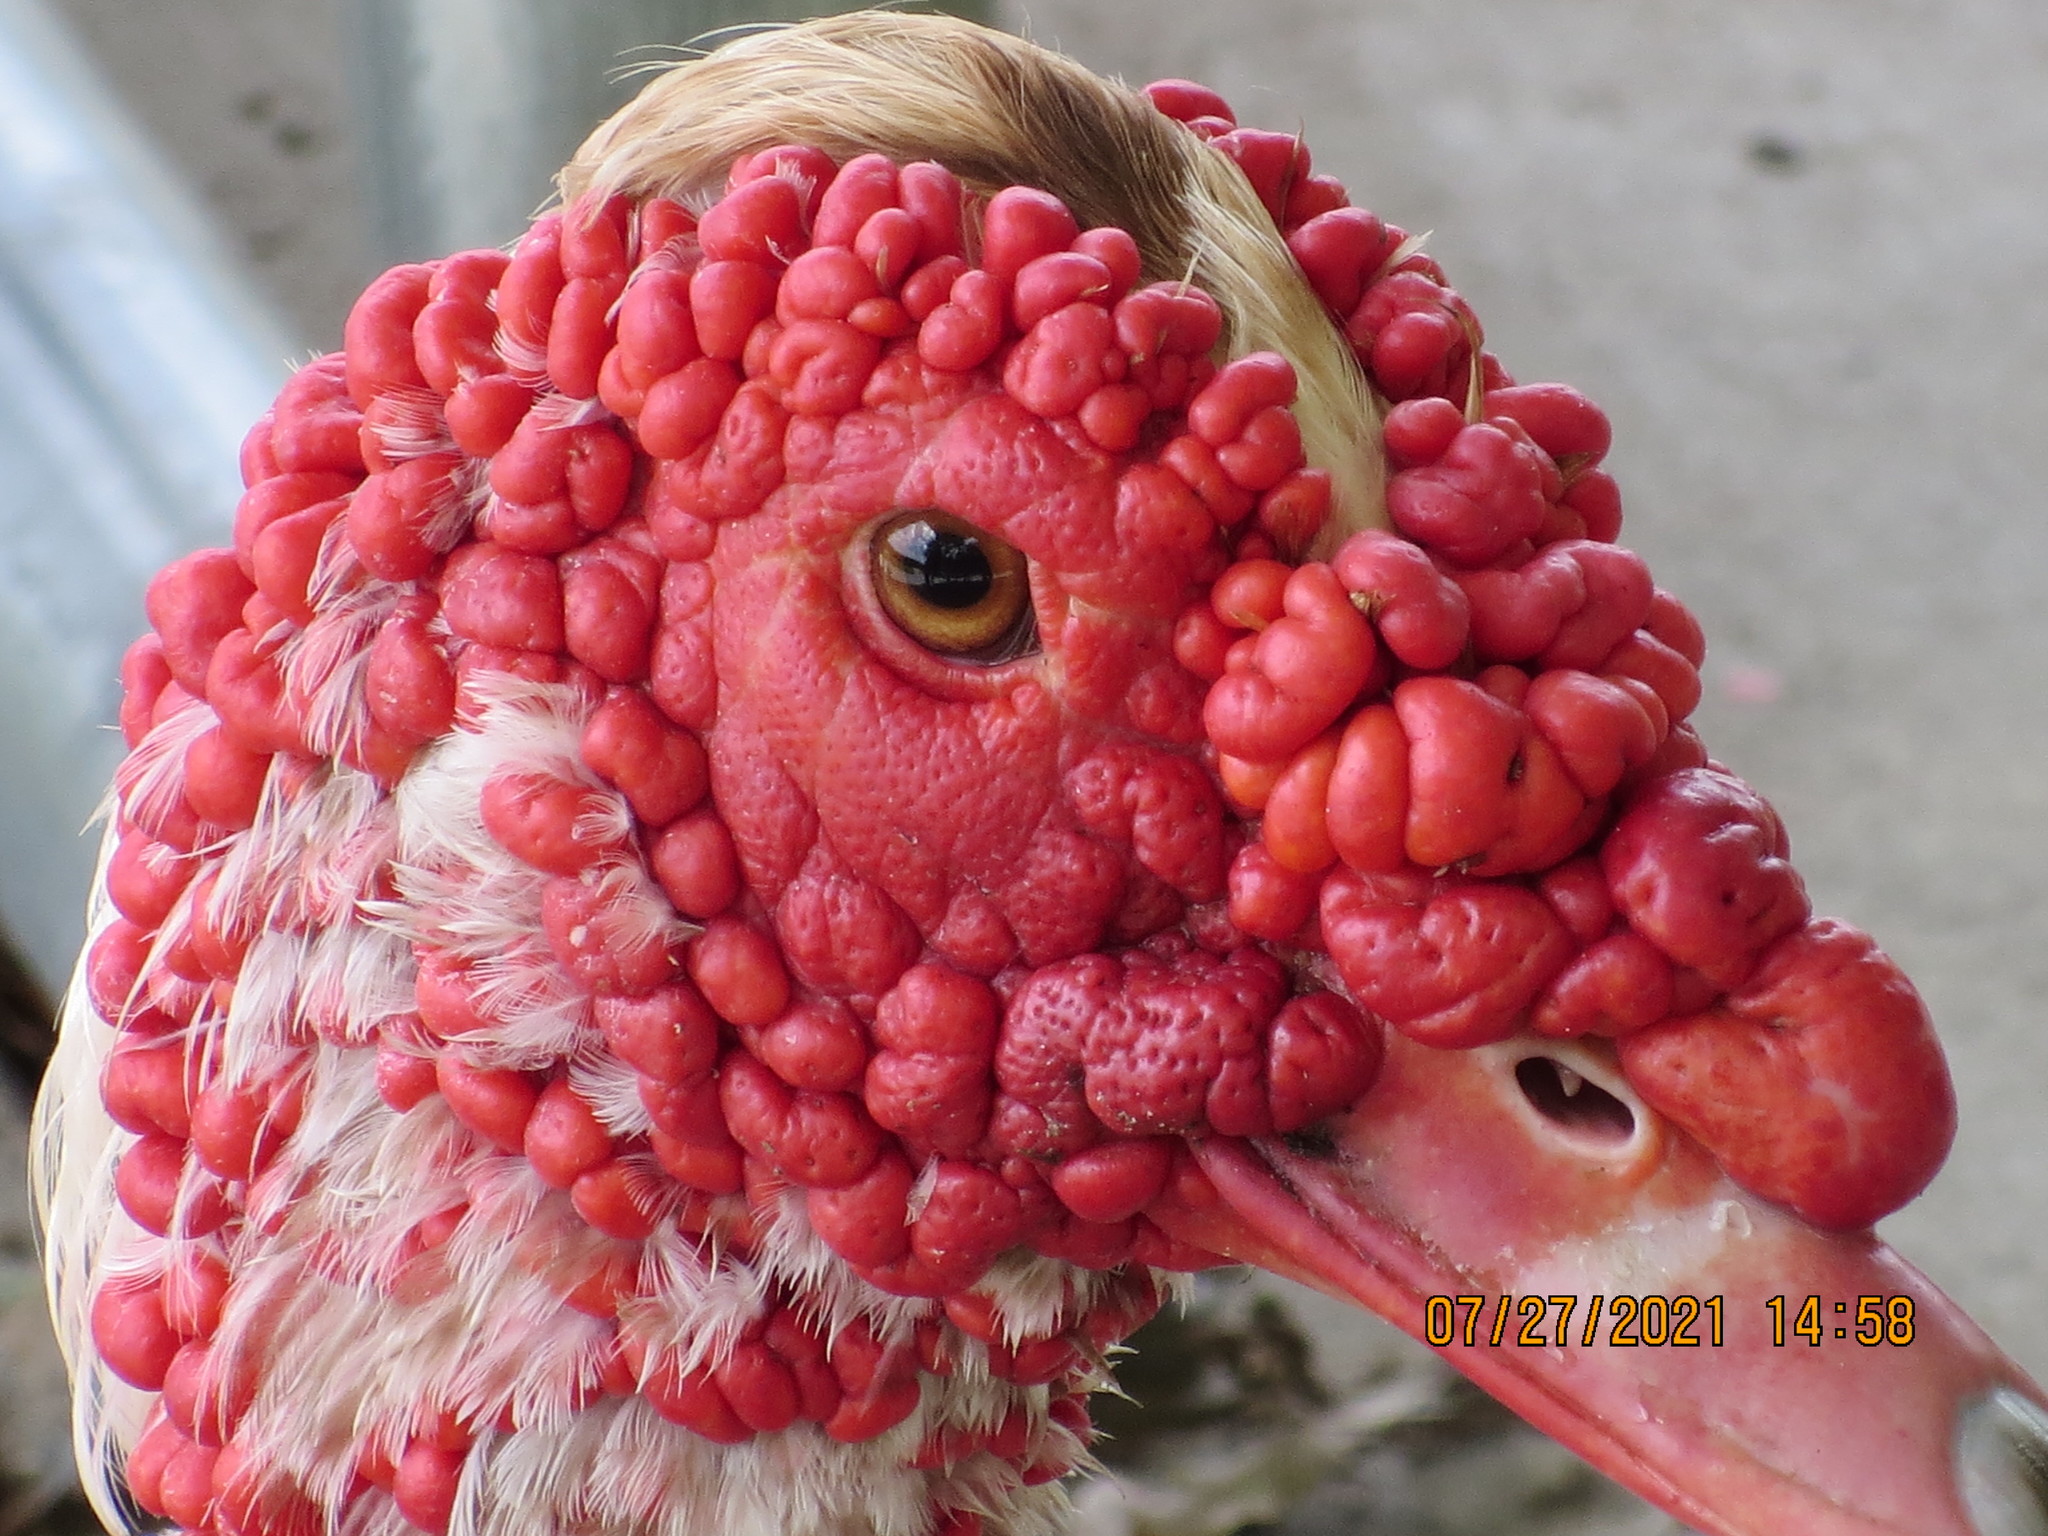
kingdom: Animalia
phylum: Chordata
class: Aves
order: Anseriformes
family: Anatidae
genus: Cairina
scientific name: Cairina moschata
